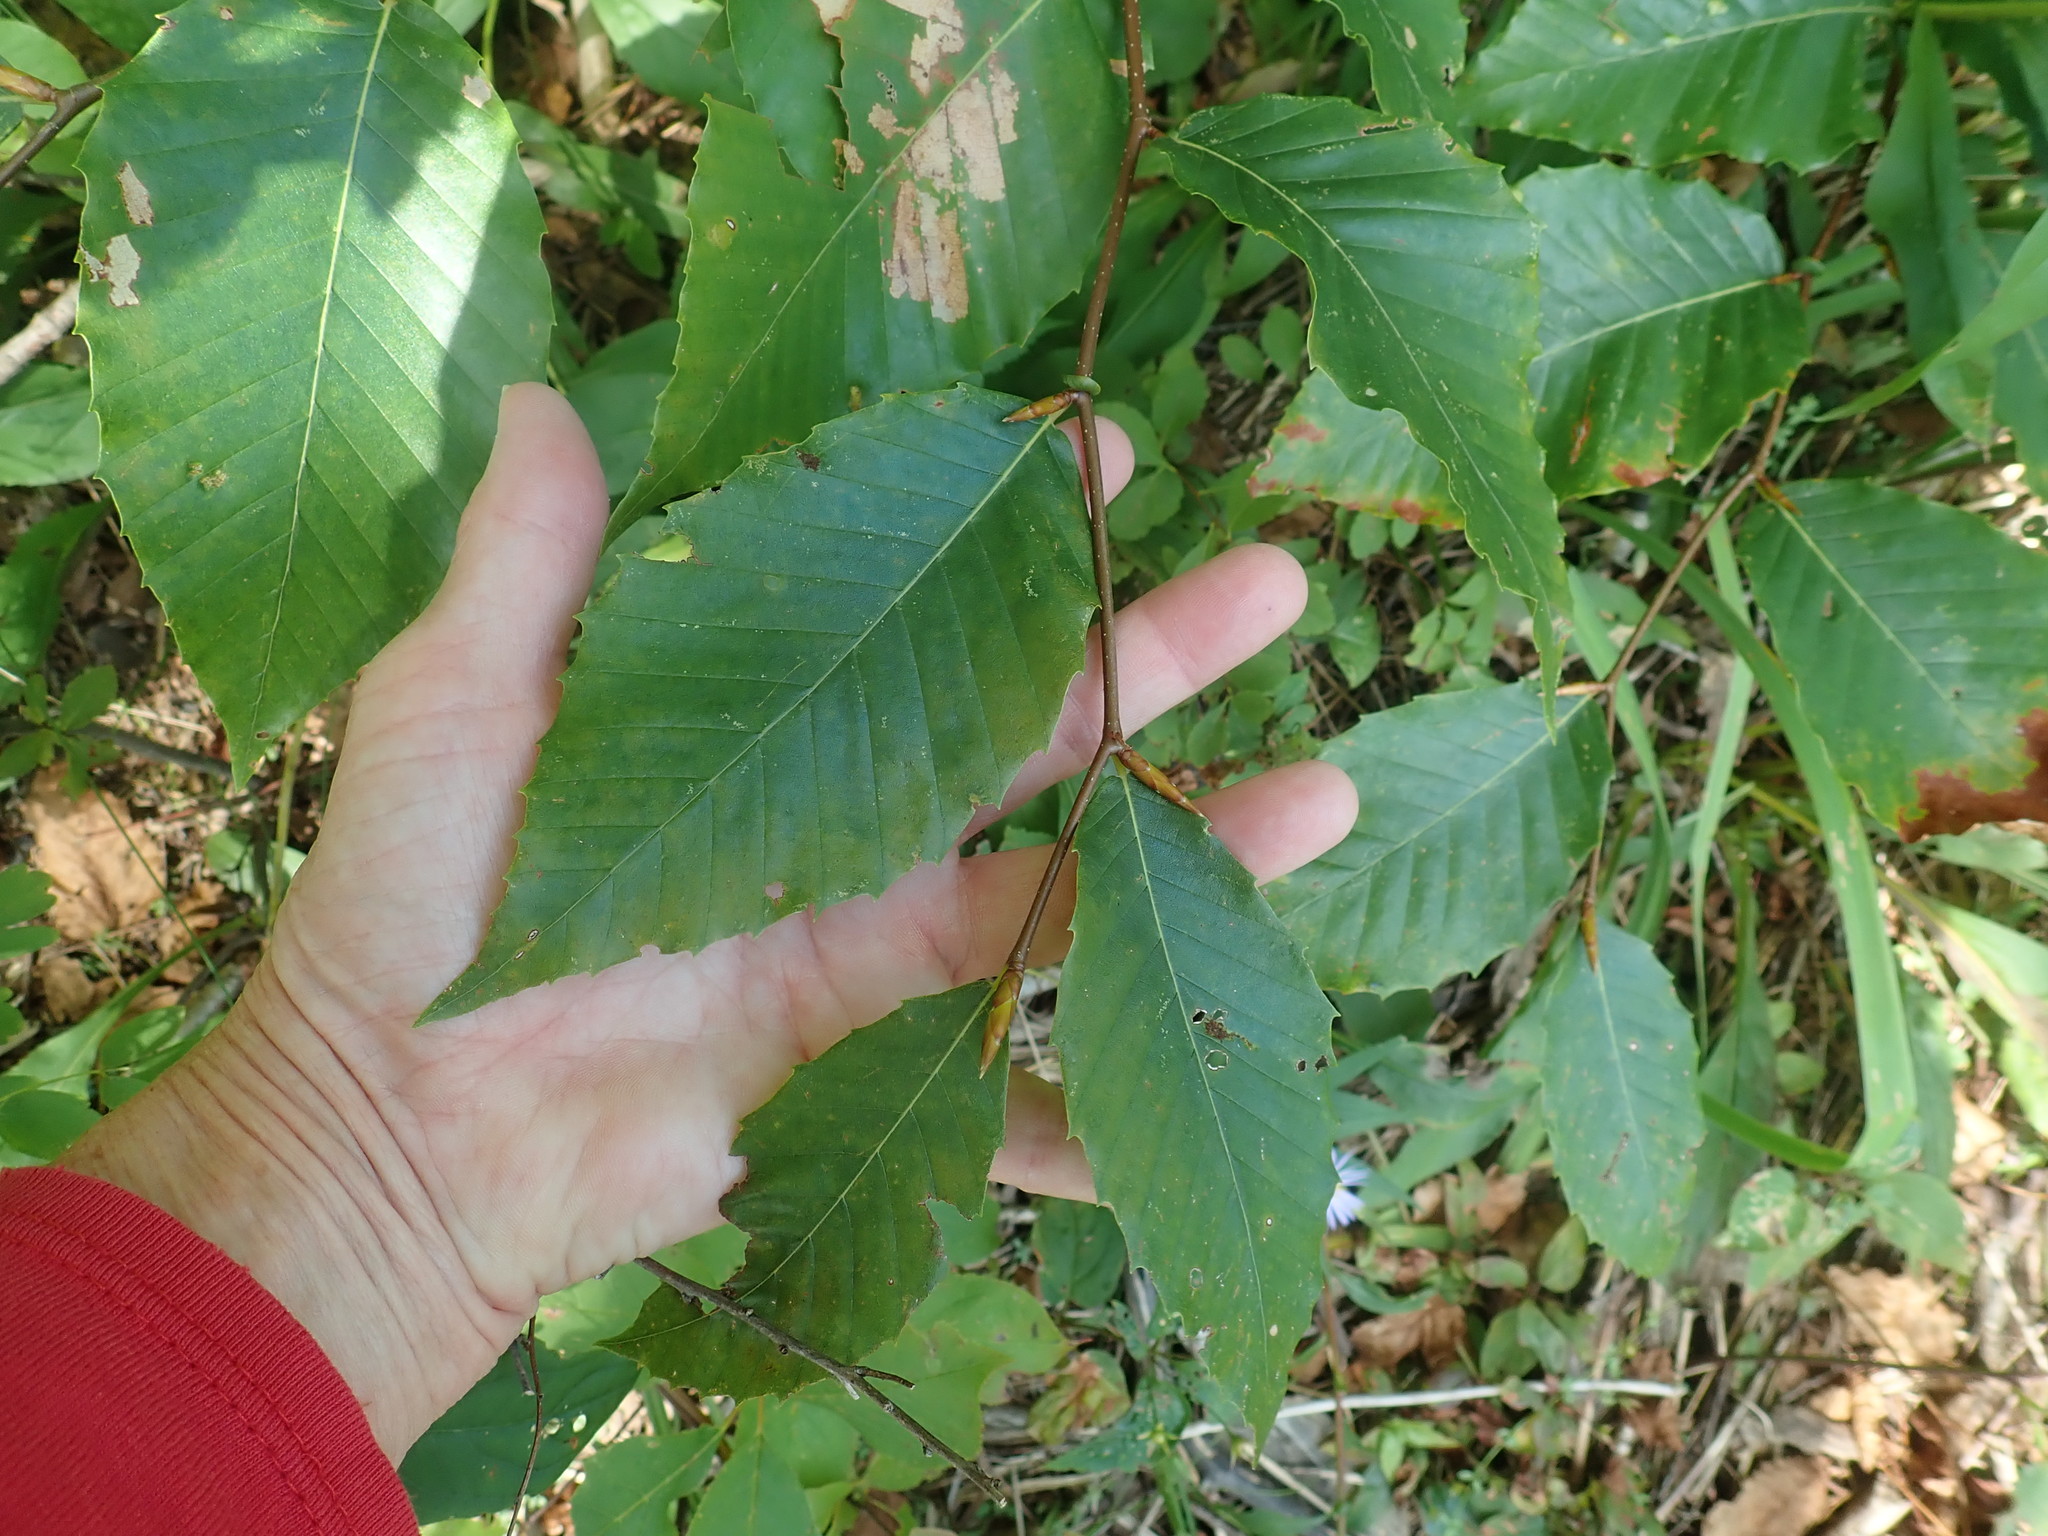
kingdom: Plantae
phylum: Tracheophyta
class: Magnoliopsida
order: Fagales
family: Fagaceae
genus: Fagus
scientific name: Fagus grandifolia
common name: American beech
